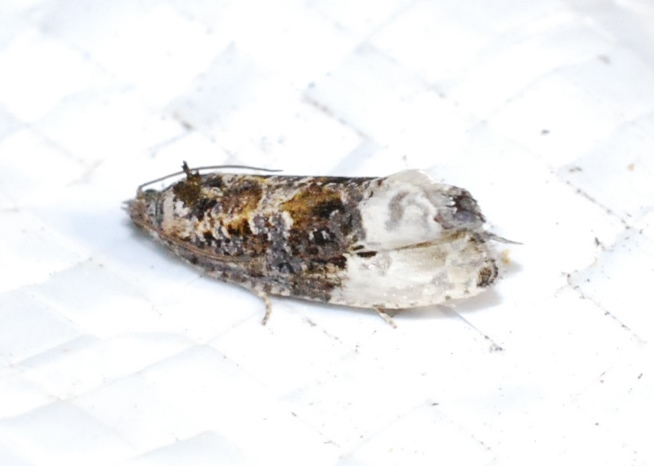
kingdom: Animalia
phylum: Arthropoda
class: Insecta
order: Lepidoptera
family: Tortricidae
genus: Hedya
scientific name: Hedya nubiferana
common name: Marbled orchard tortrix
